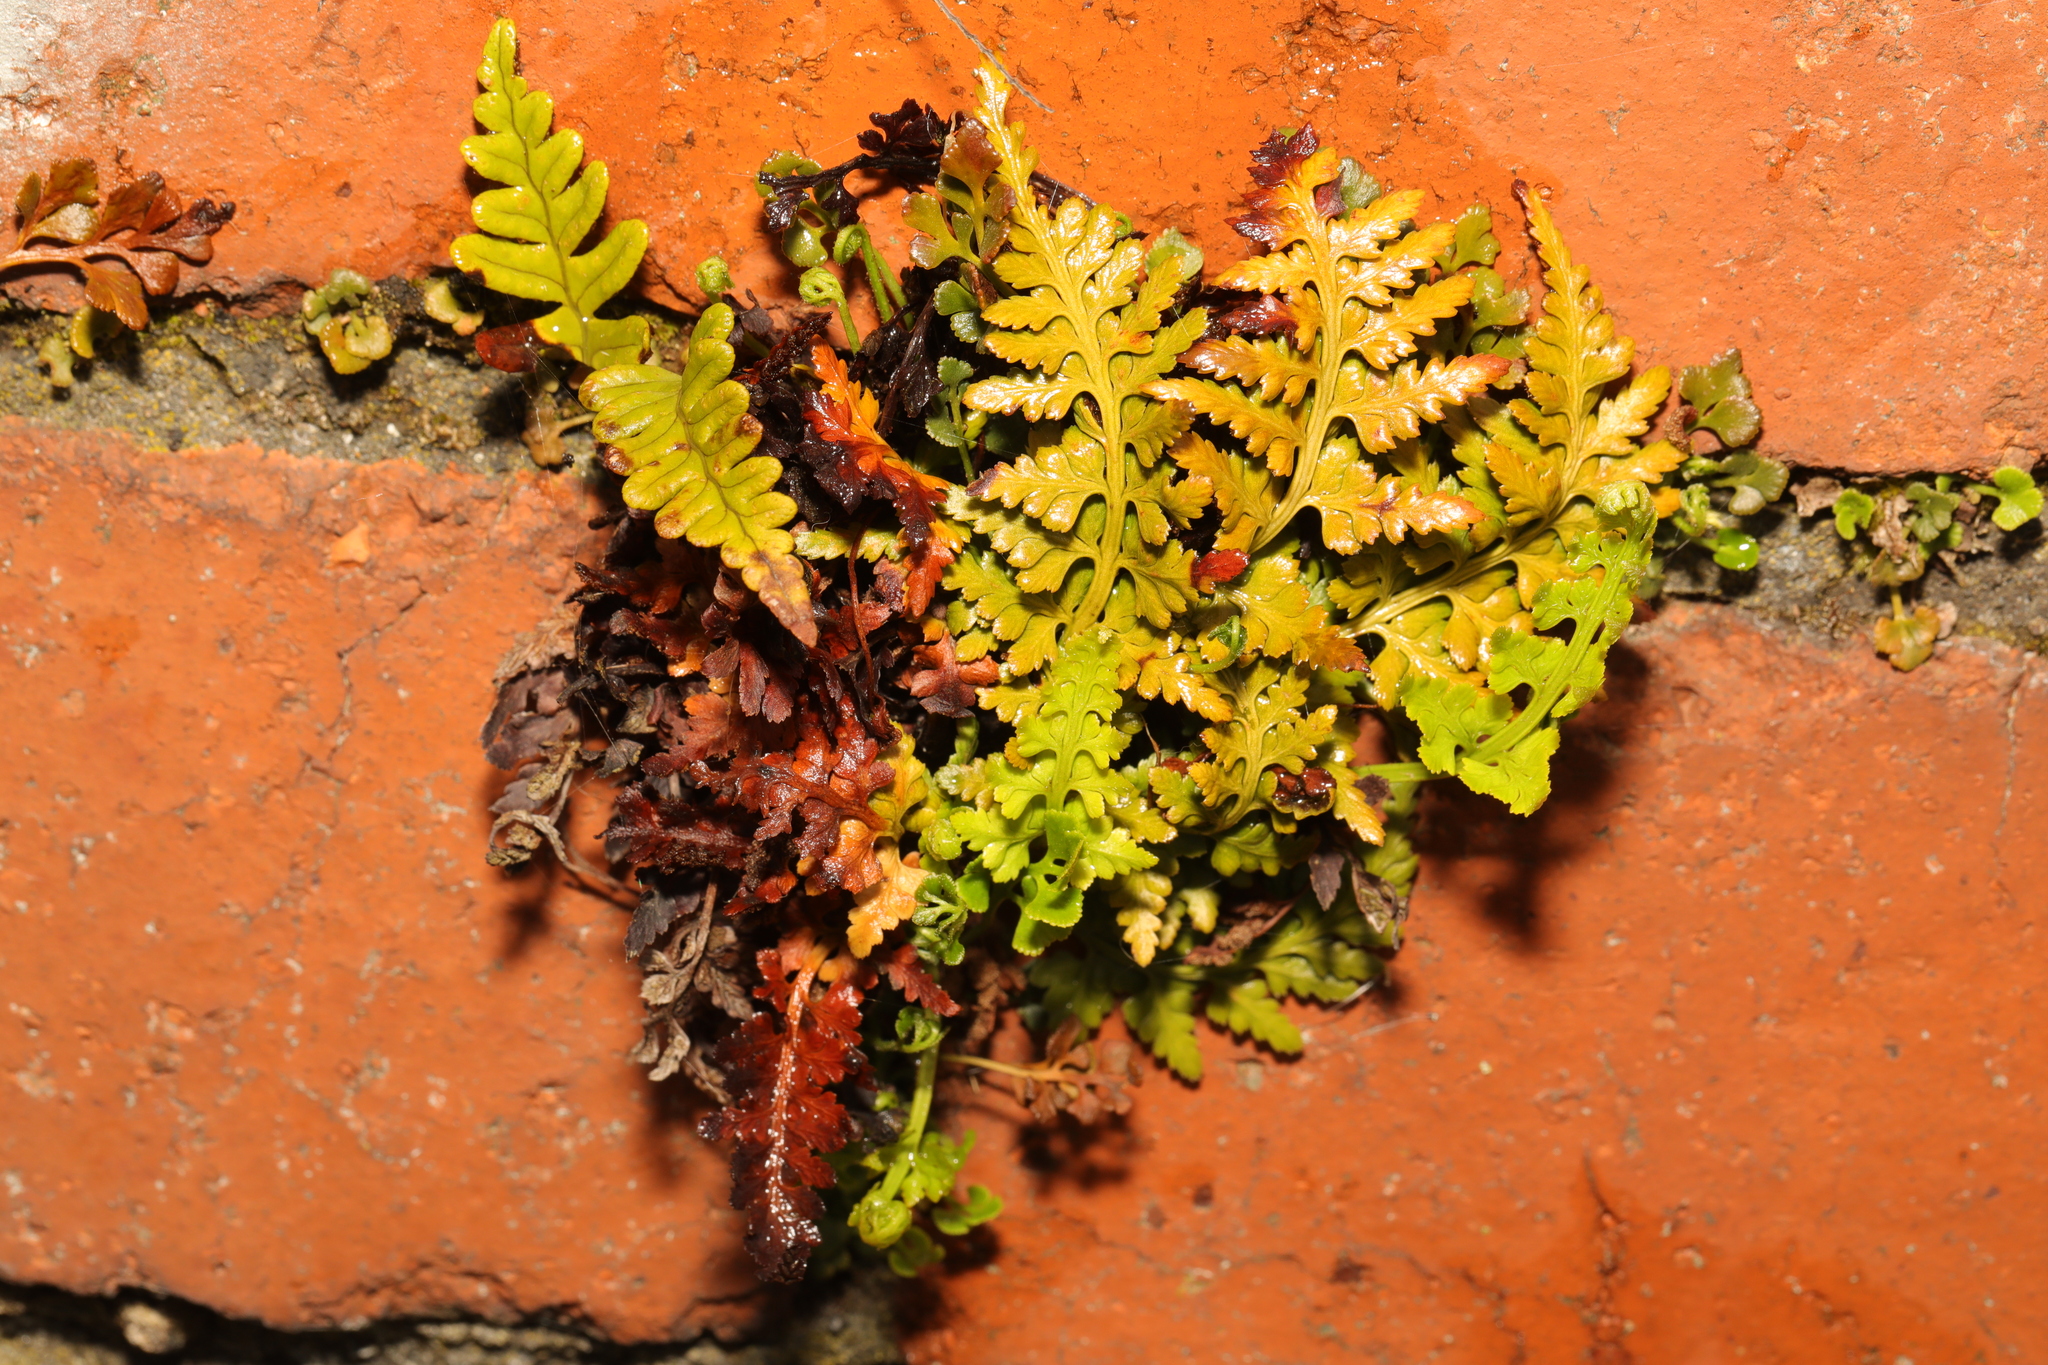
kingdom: Plantae
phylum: Tracheophyta
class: Polypodiopsida
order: Polypodiales
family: Aspleniaceae
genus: Asplenium
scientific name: Asplenium adiantum-nigrum
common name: Black spleenwort
